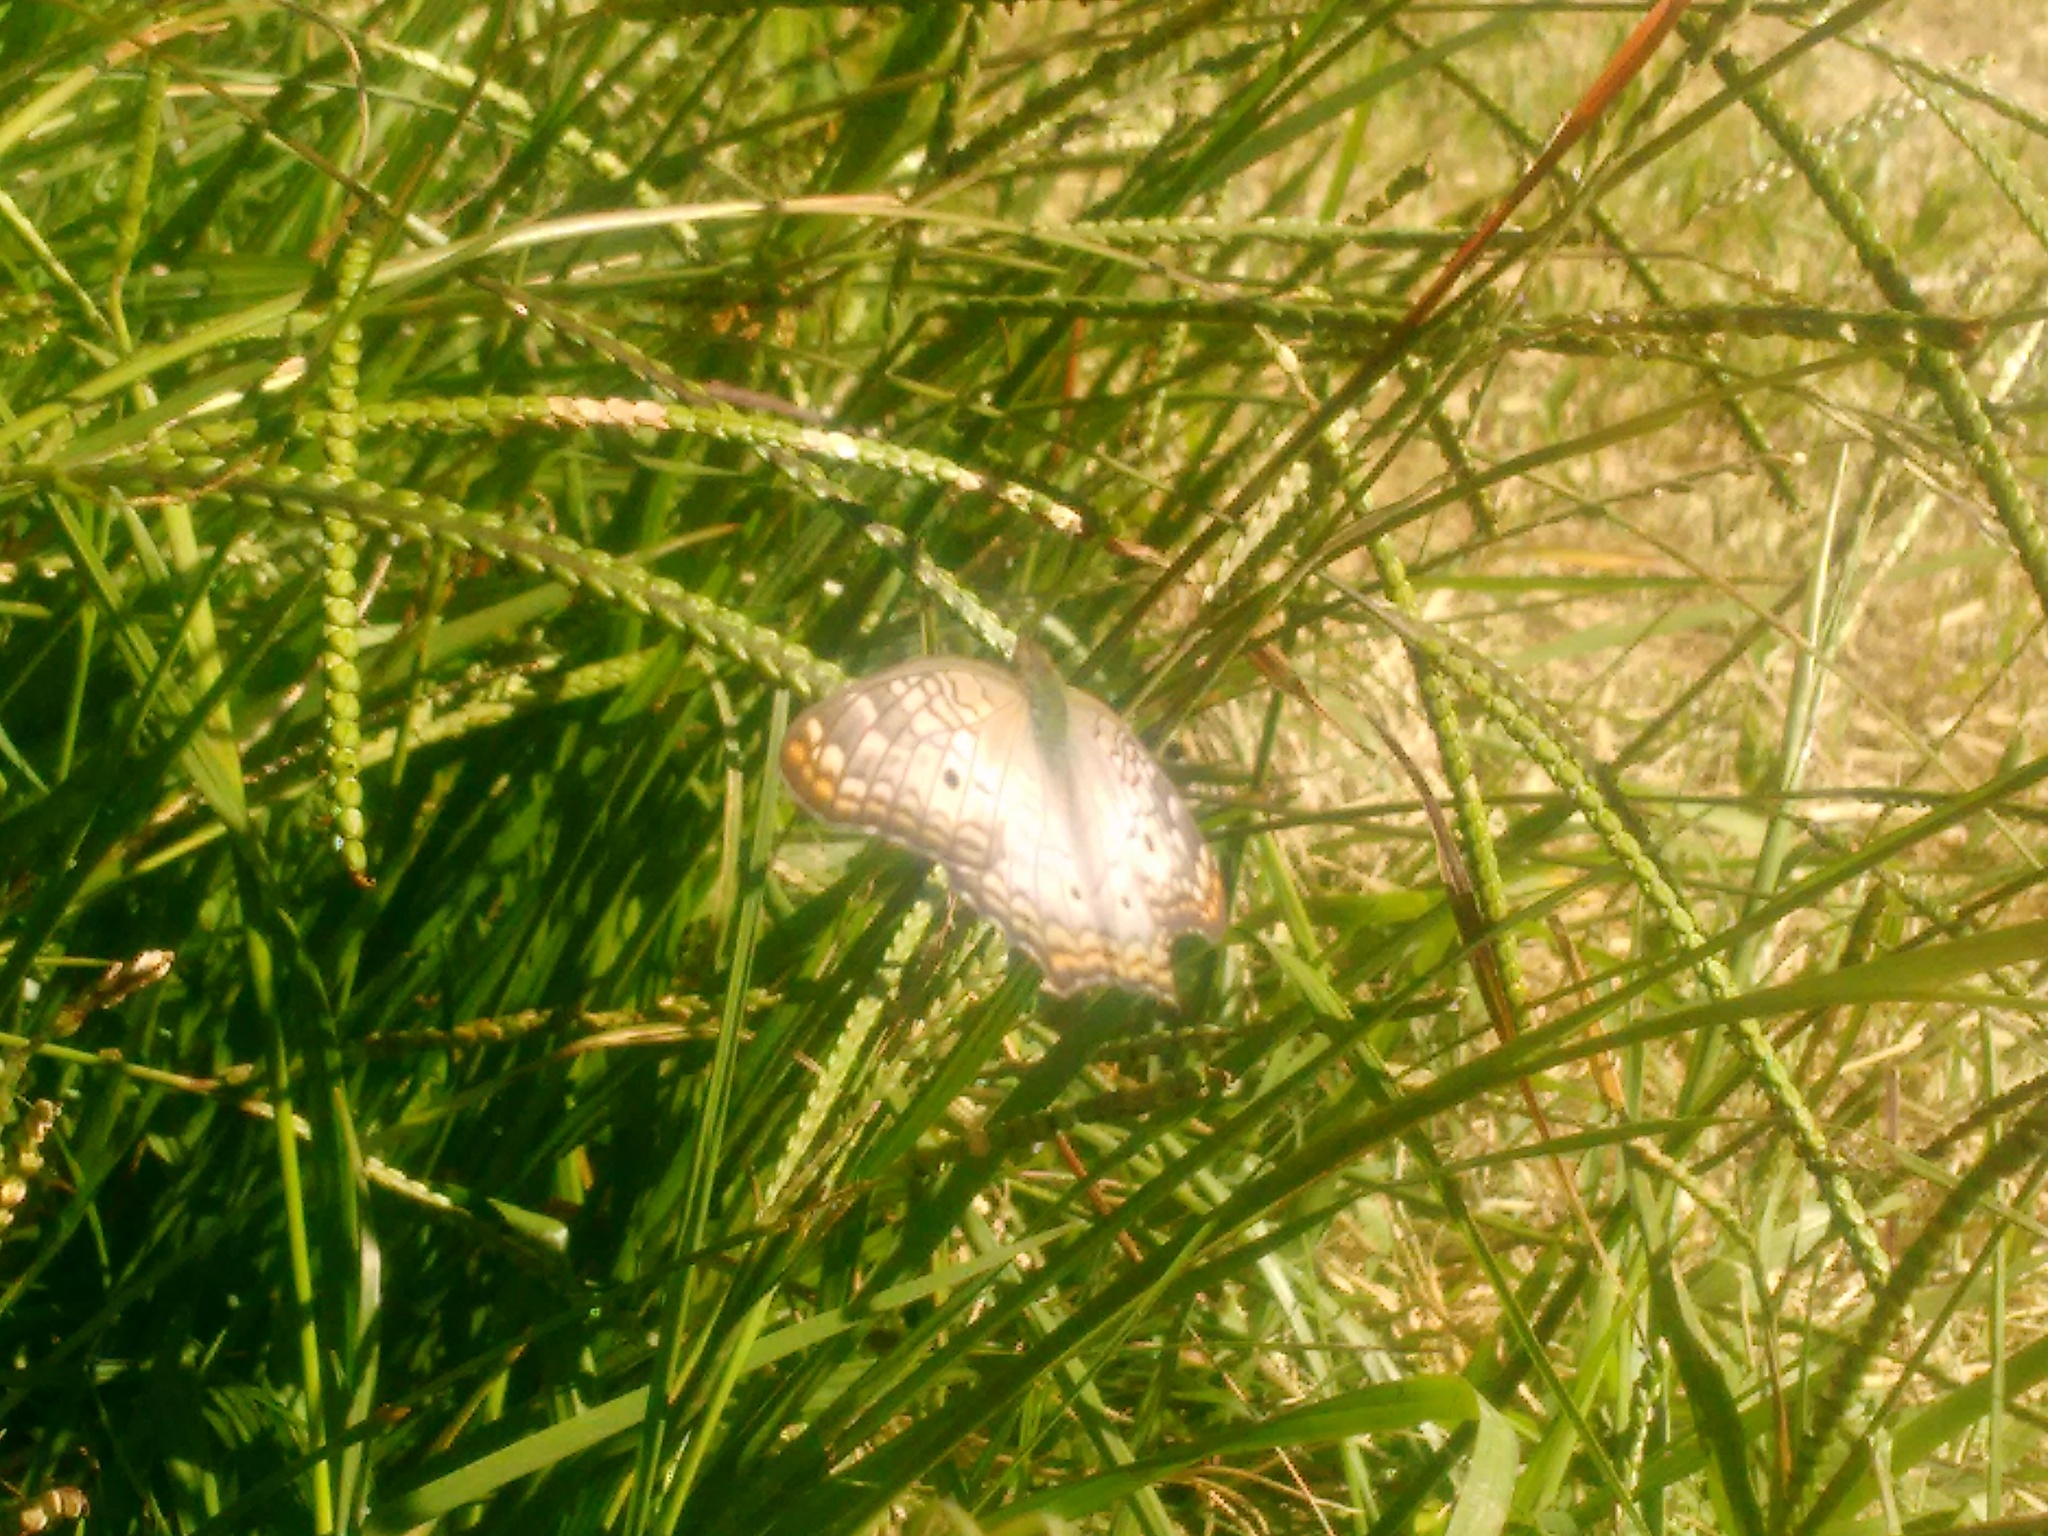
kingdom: Animalia
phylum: Arthropoda
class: Insecta
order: Lepidoptera
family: Nymphalidae
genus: Anartia
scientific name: Anartia jatrophae
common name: White peacock
